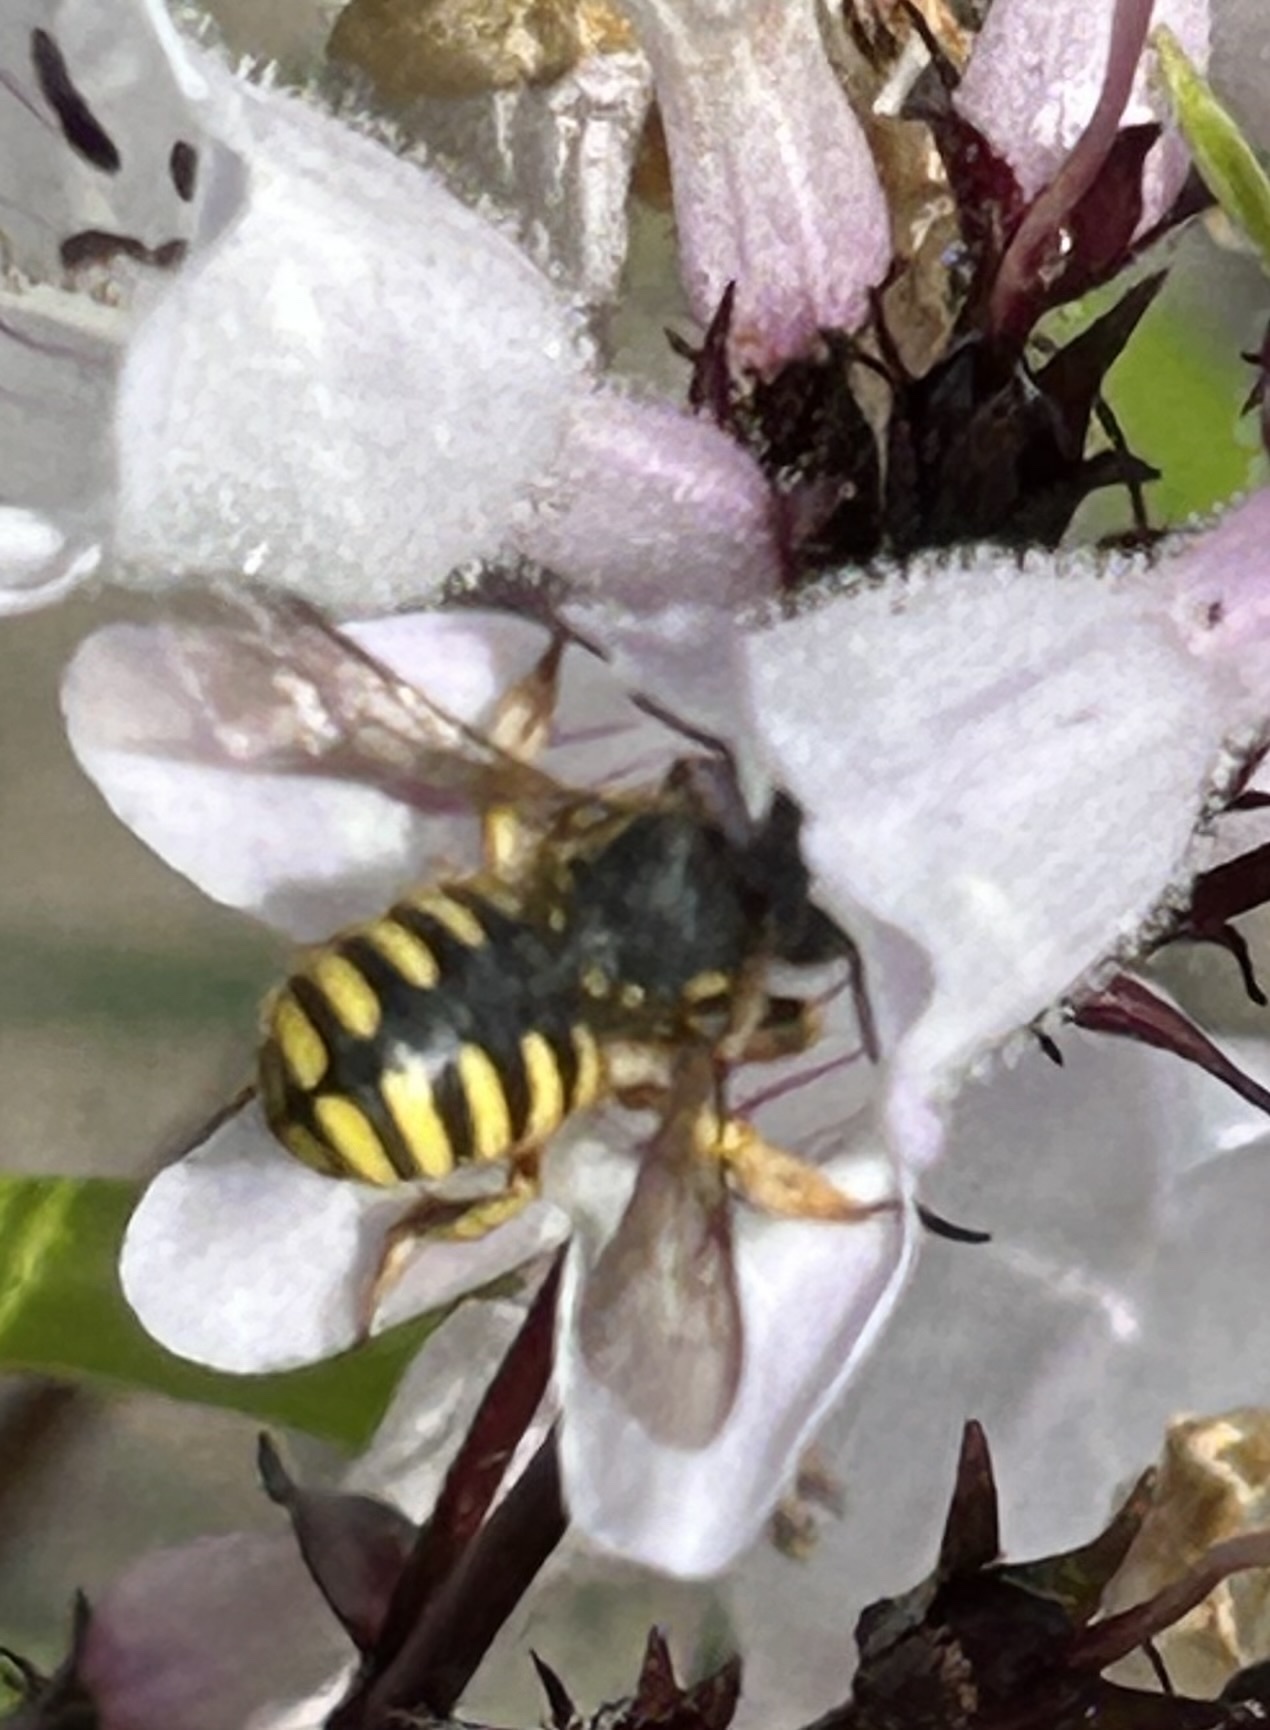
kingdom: Animalia
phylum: Arthropoda
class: Insecta
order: Hymenoptera
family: Megachilidae
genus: Anthidium
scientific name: Anthidium manicatum
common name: Wool carder bee
